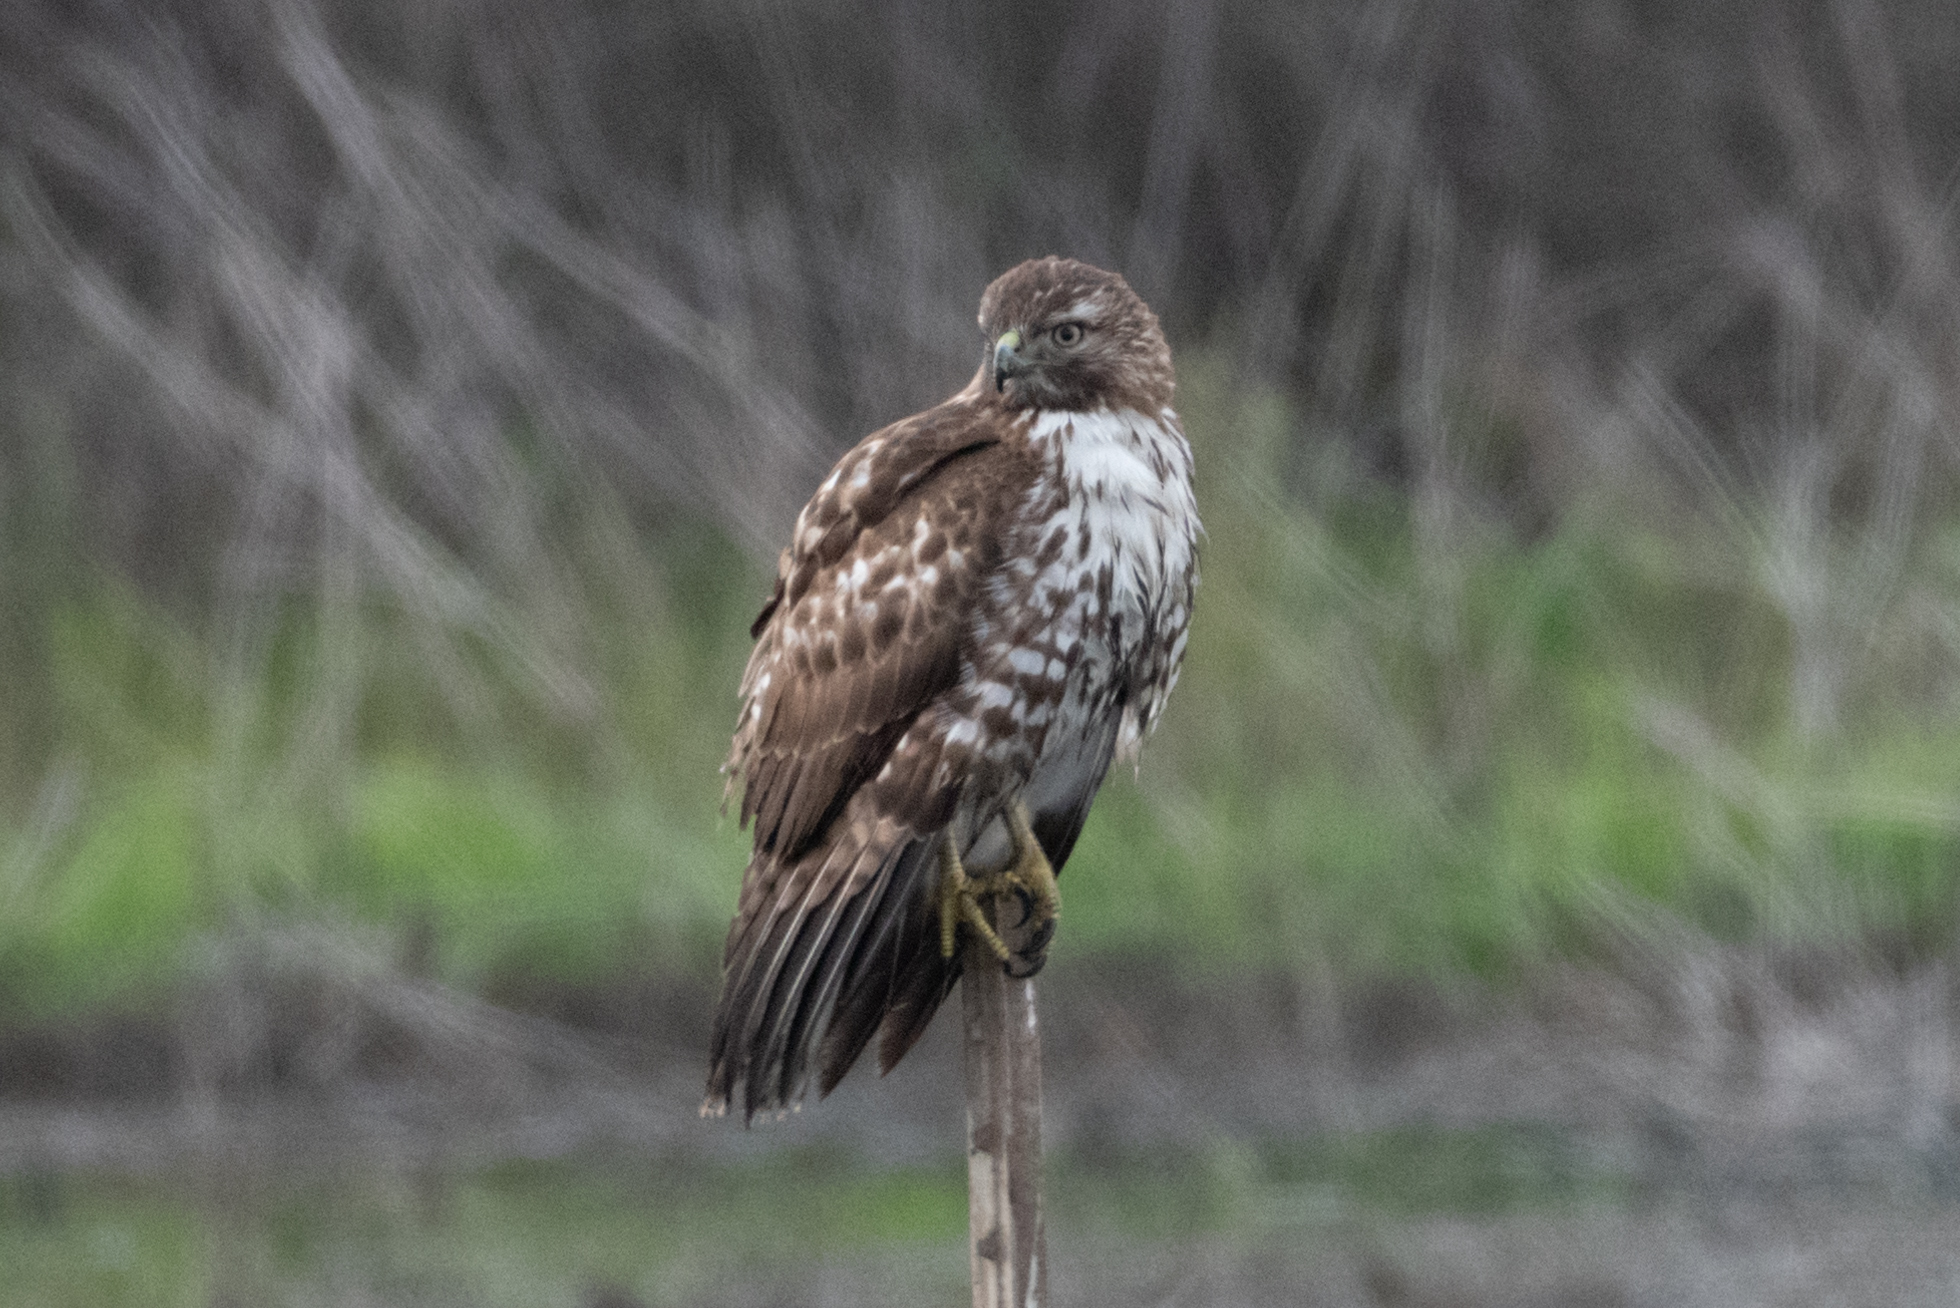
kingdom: Animalia
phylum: Chordata
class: Aves
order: Accipitriformes
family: Accipitridae
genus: Buteo
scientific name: Buteo jamaicensis
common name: Red-tailed hawk
